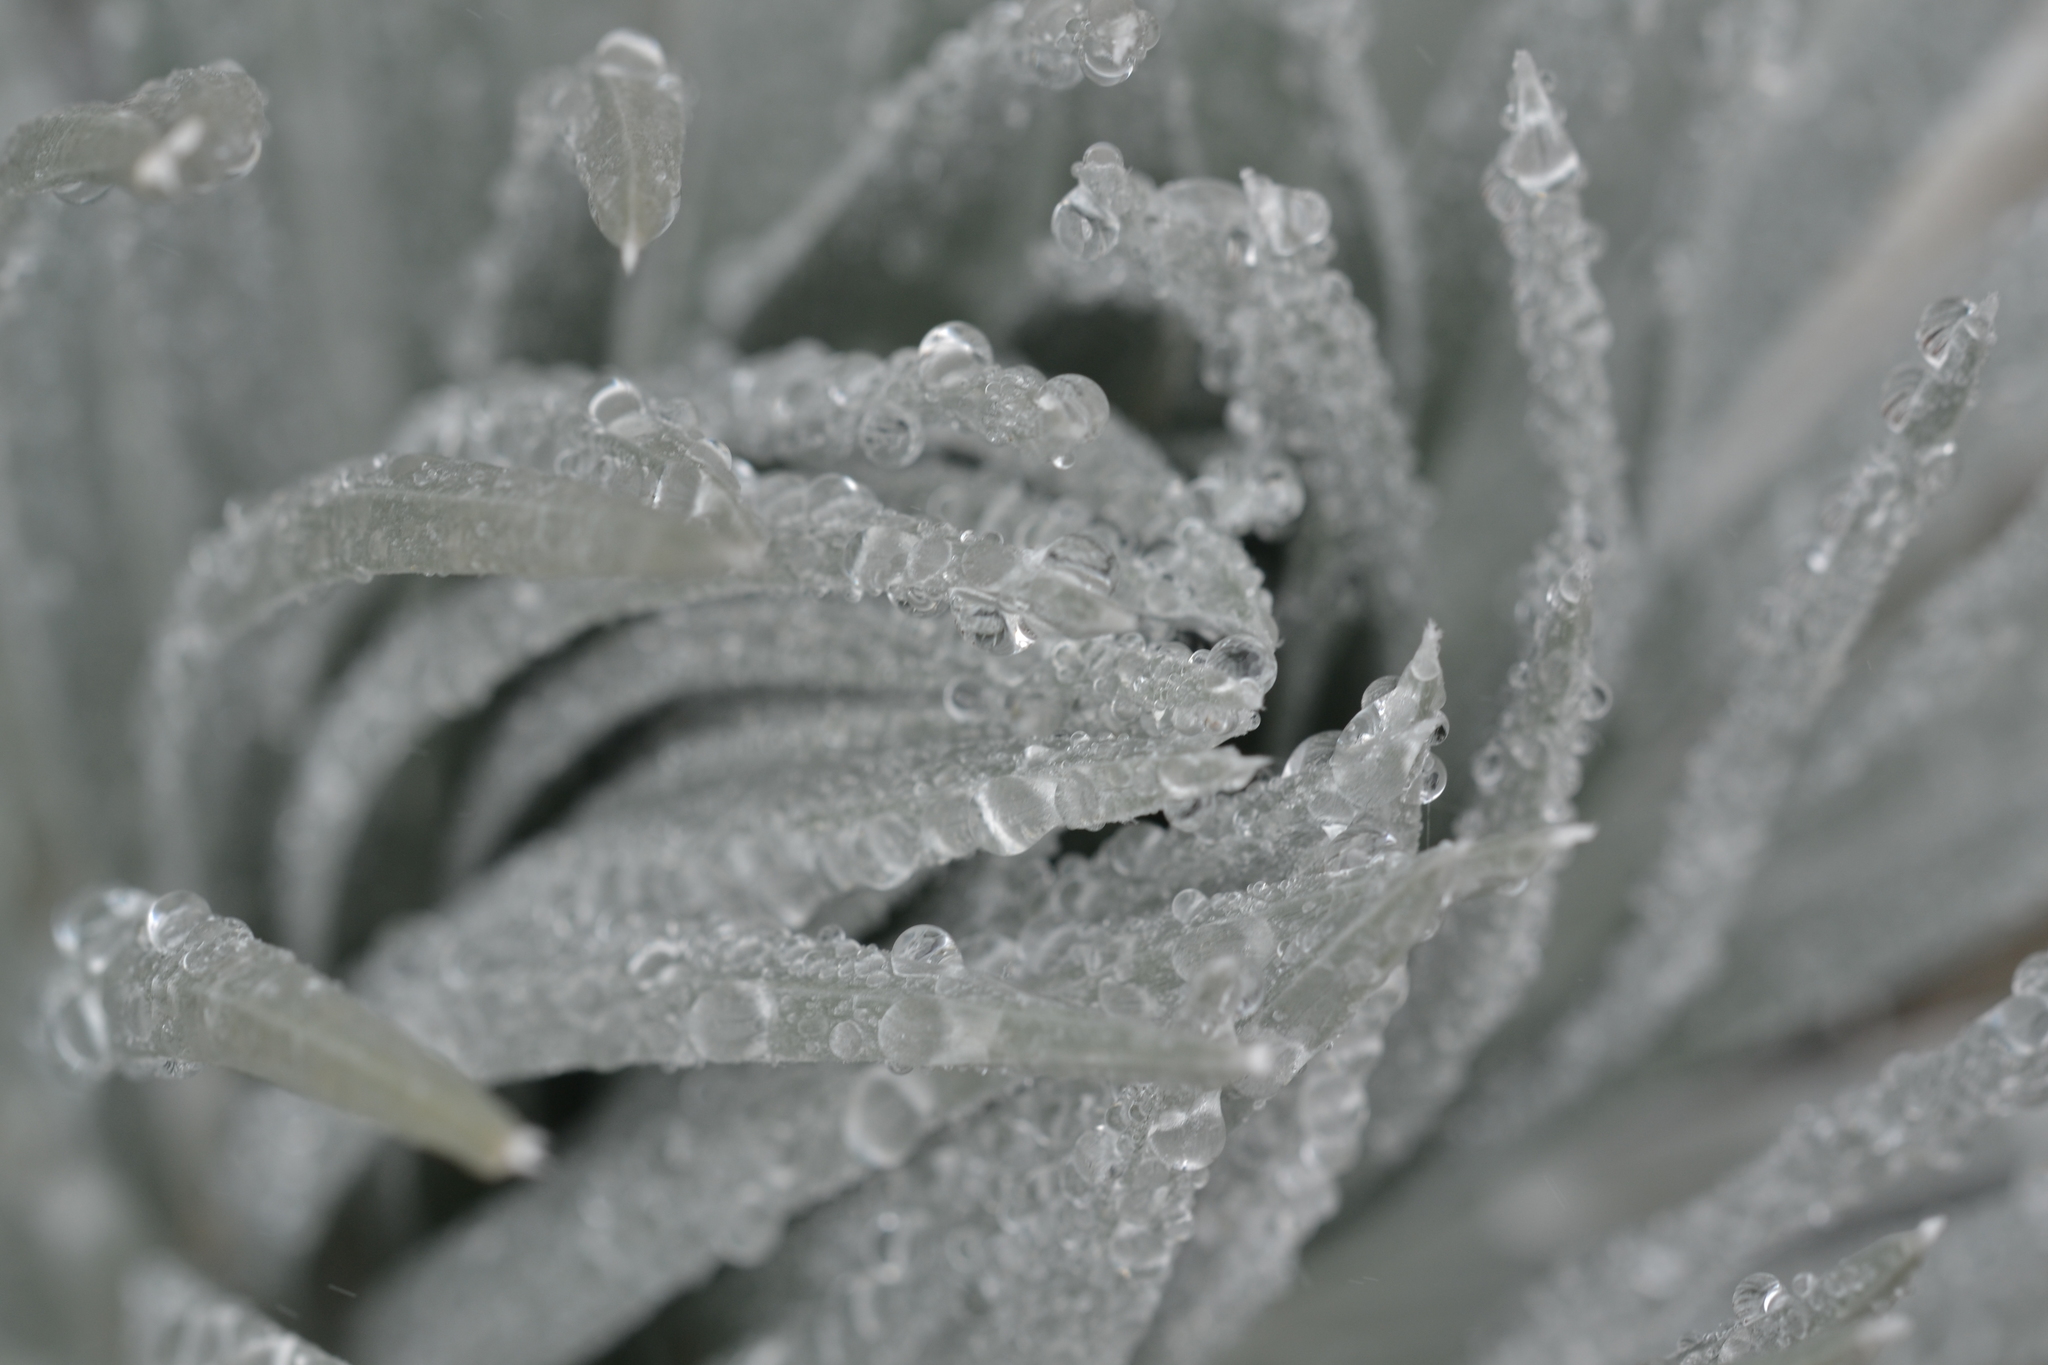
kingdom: Plantae
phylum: Tracheophyta
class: Magnoliopsida
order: Asterales
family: Asteraceae
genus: Argyroxiphium
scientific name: Argyroxiphium sandwicense
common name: Silversword
